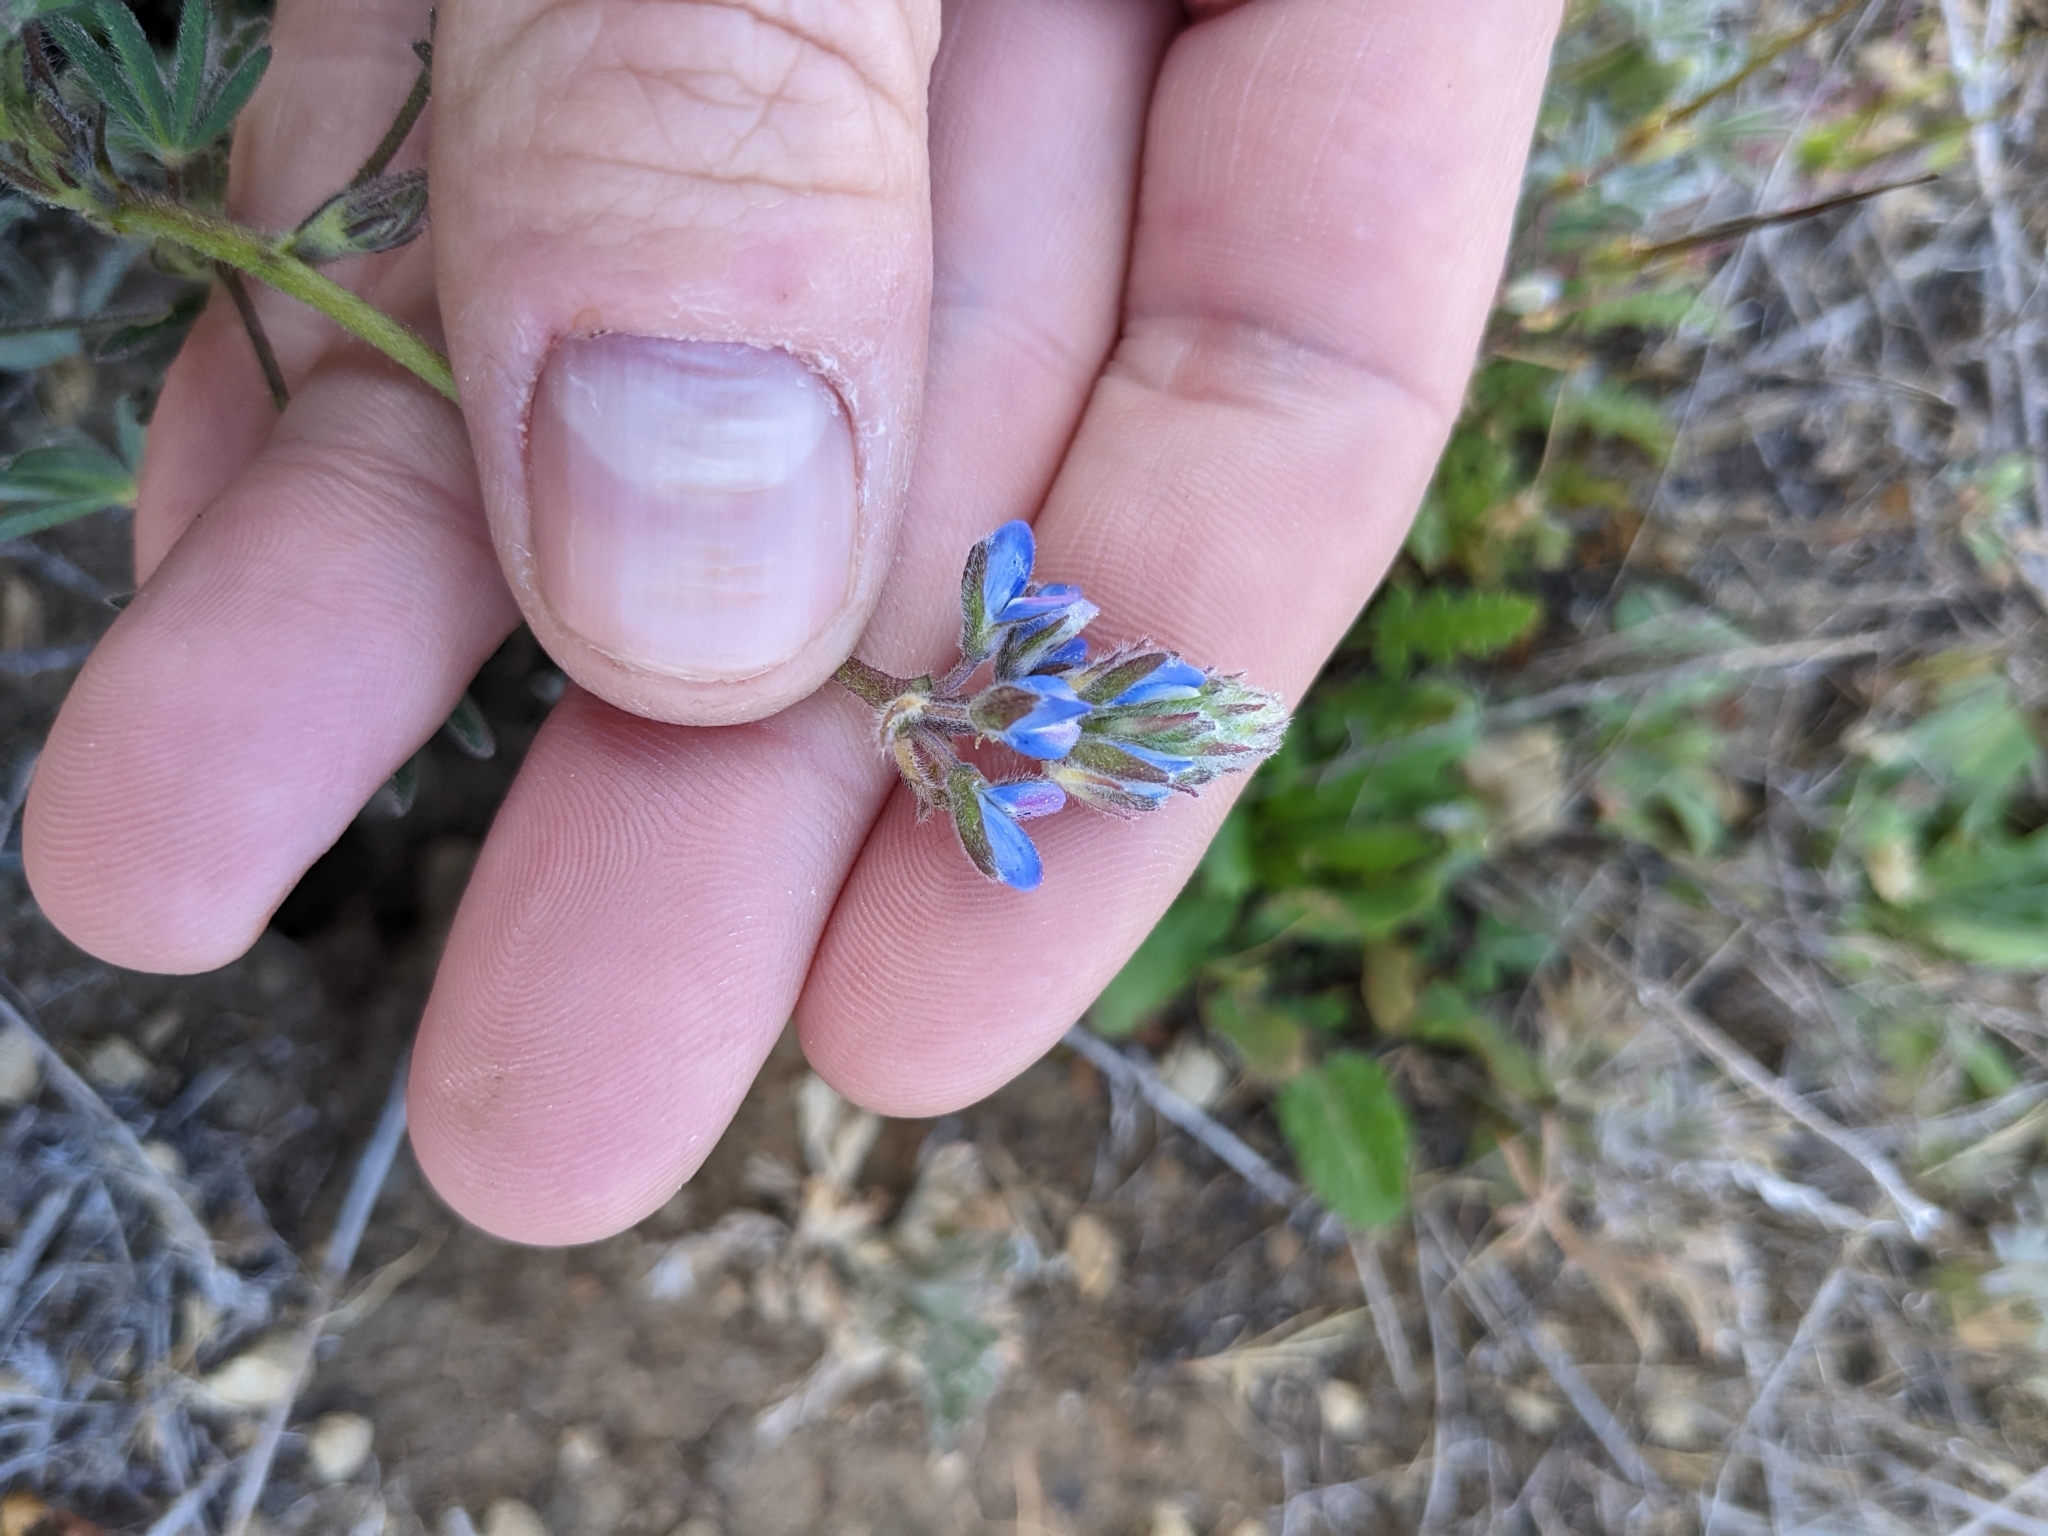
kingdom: Plantae
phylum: Tracheophyta
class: Magnoliopsida
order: Fabales
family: Fabaceae
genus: Lupinus
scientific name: Lupinus bicolor
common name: Miniature lupine
